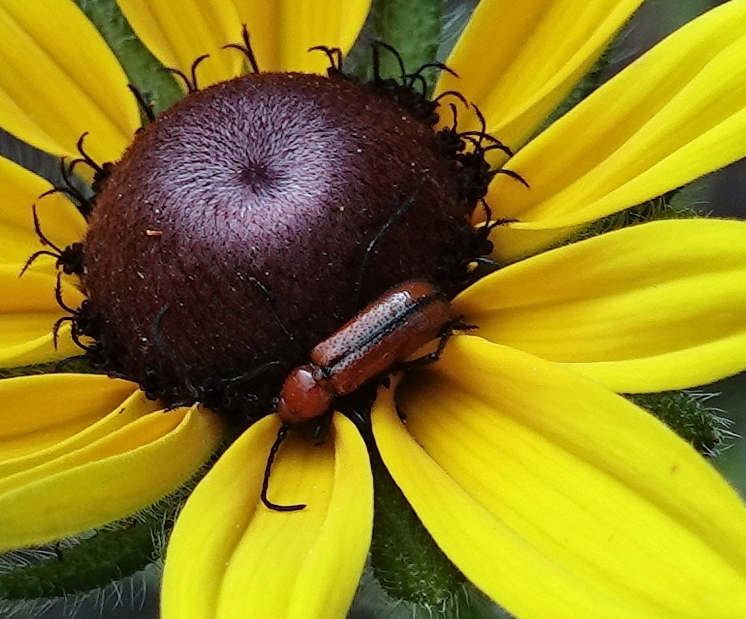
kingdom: Animalia
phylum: Arthropoda
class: Insecta
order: Coleoptera
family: Cerambycidae
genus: Batyle
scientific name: Batyle suturalis
